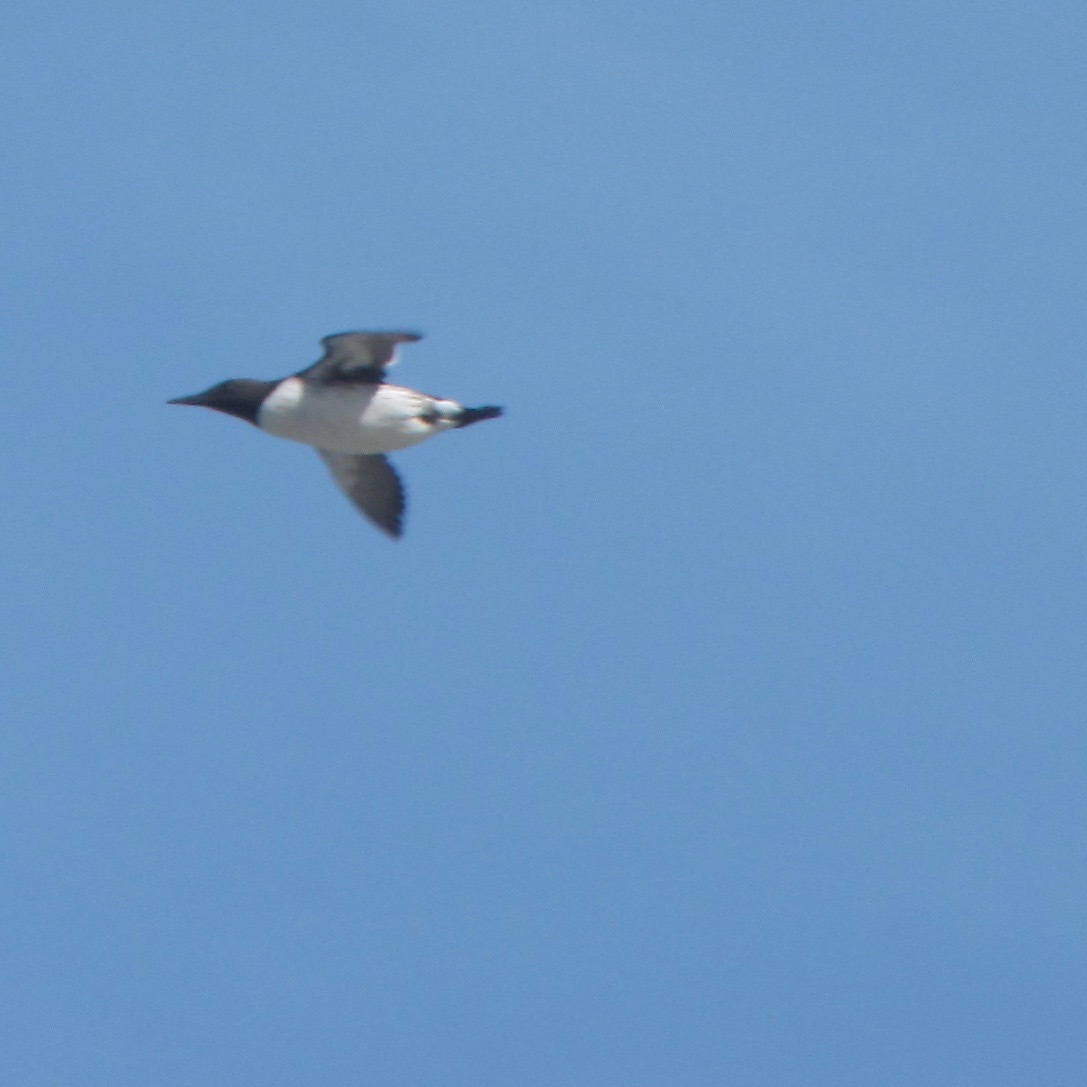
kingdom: Animalia
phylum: Chordata
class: Aves
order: Charadriiformes
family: Alcidae
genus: Uria
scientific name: Uria aalge
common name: Common murre
